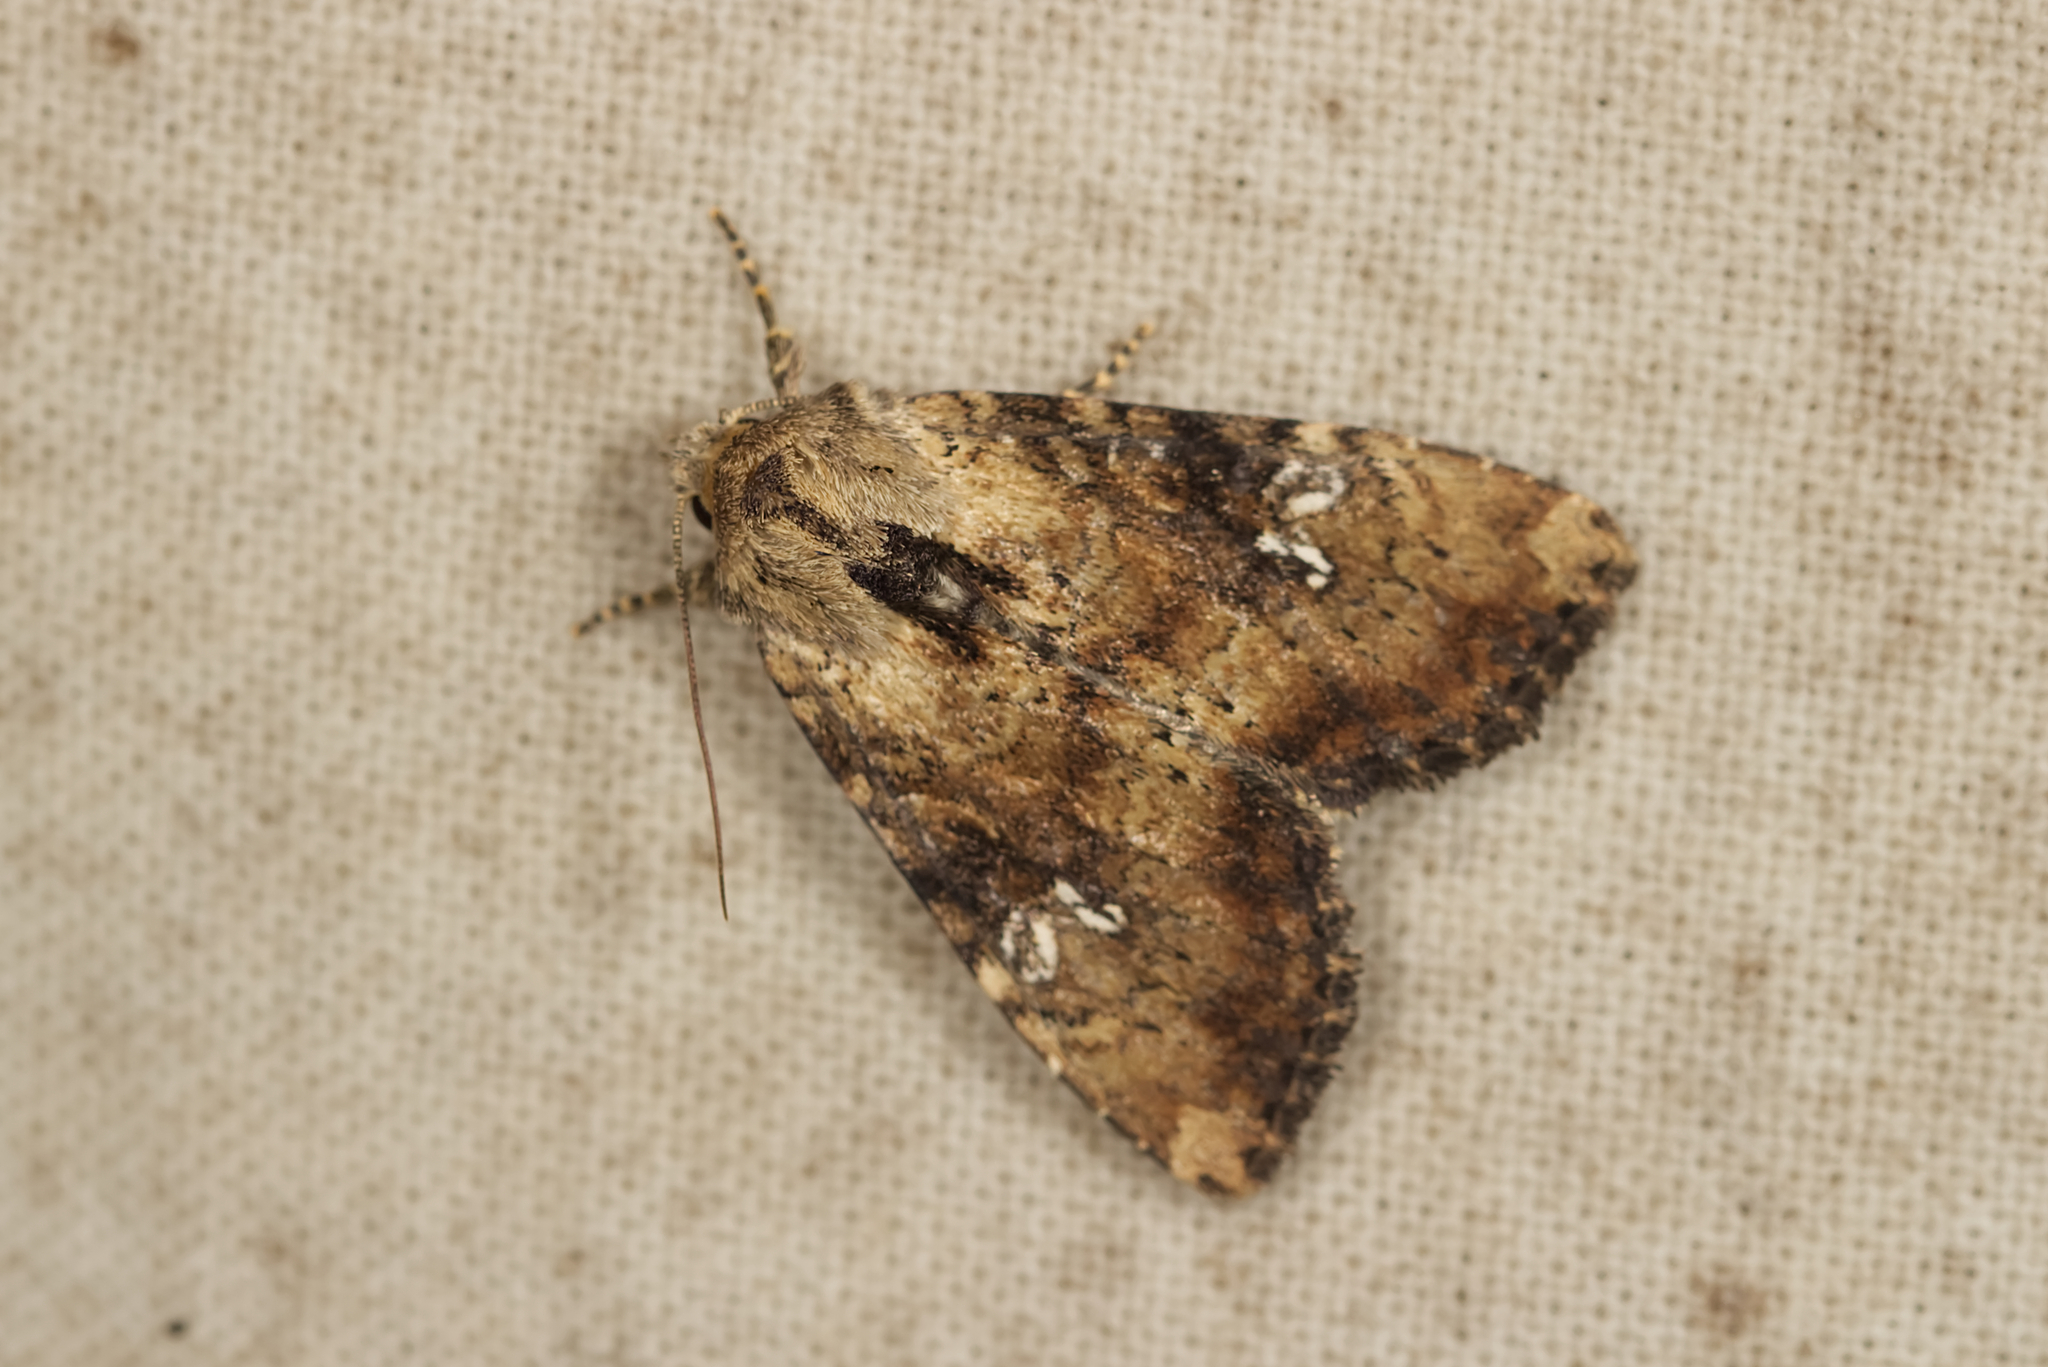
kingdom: Animalia
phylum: Arthropoda
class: Insecta
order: Lepidoptera
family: Noctuidae
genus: Loscopia
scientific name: Loscopia scolopacina
